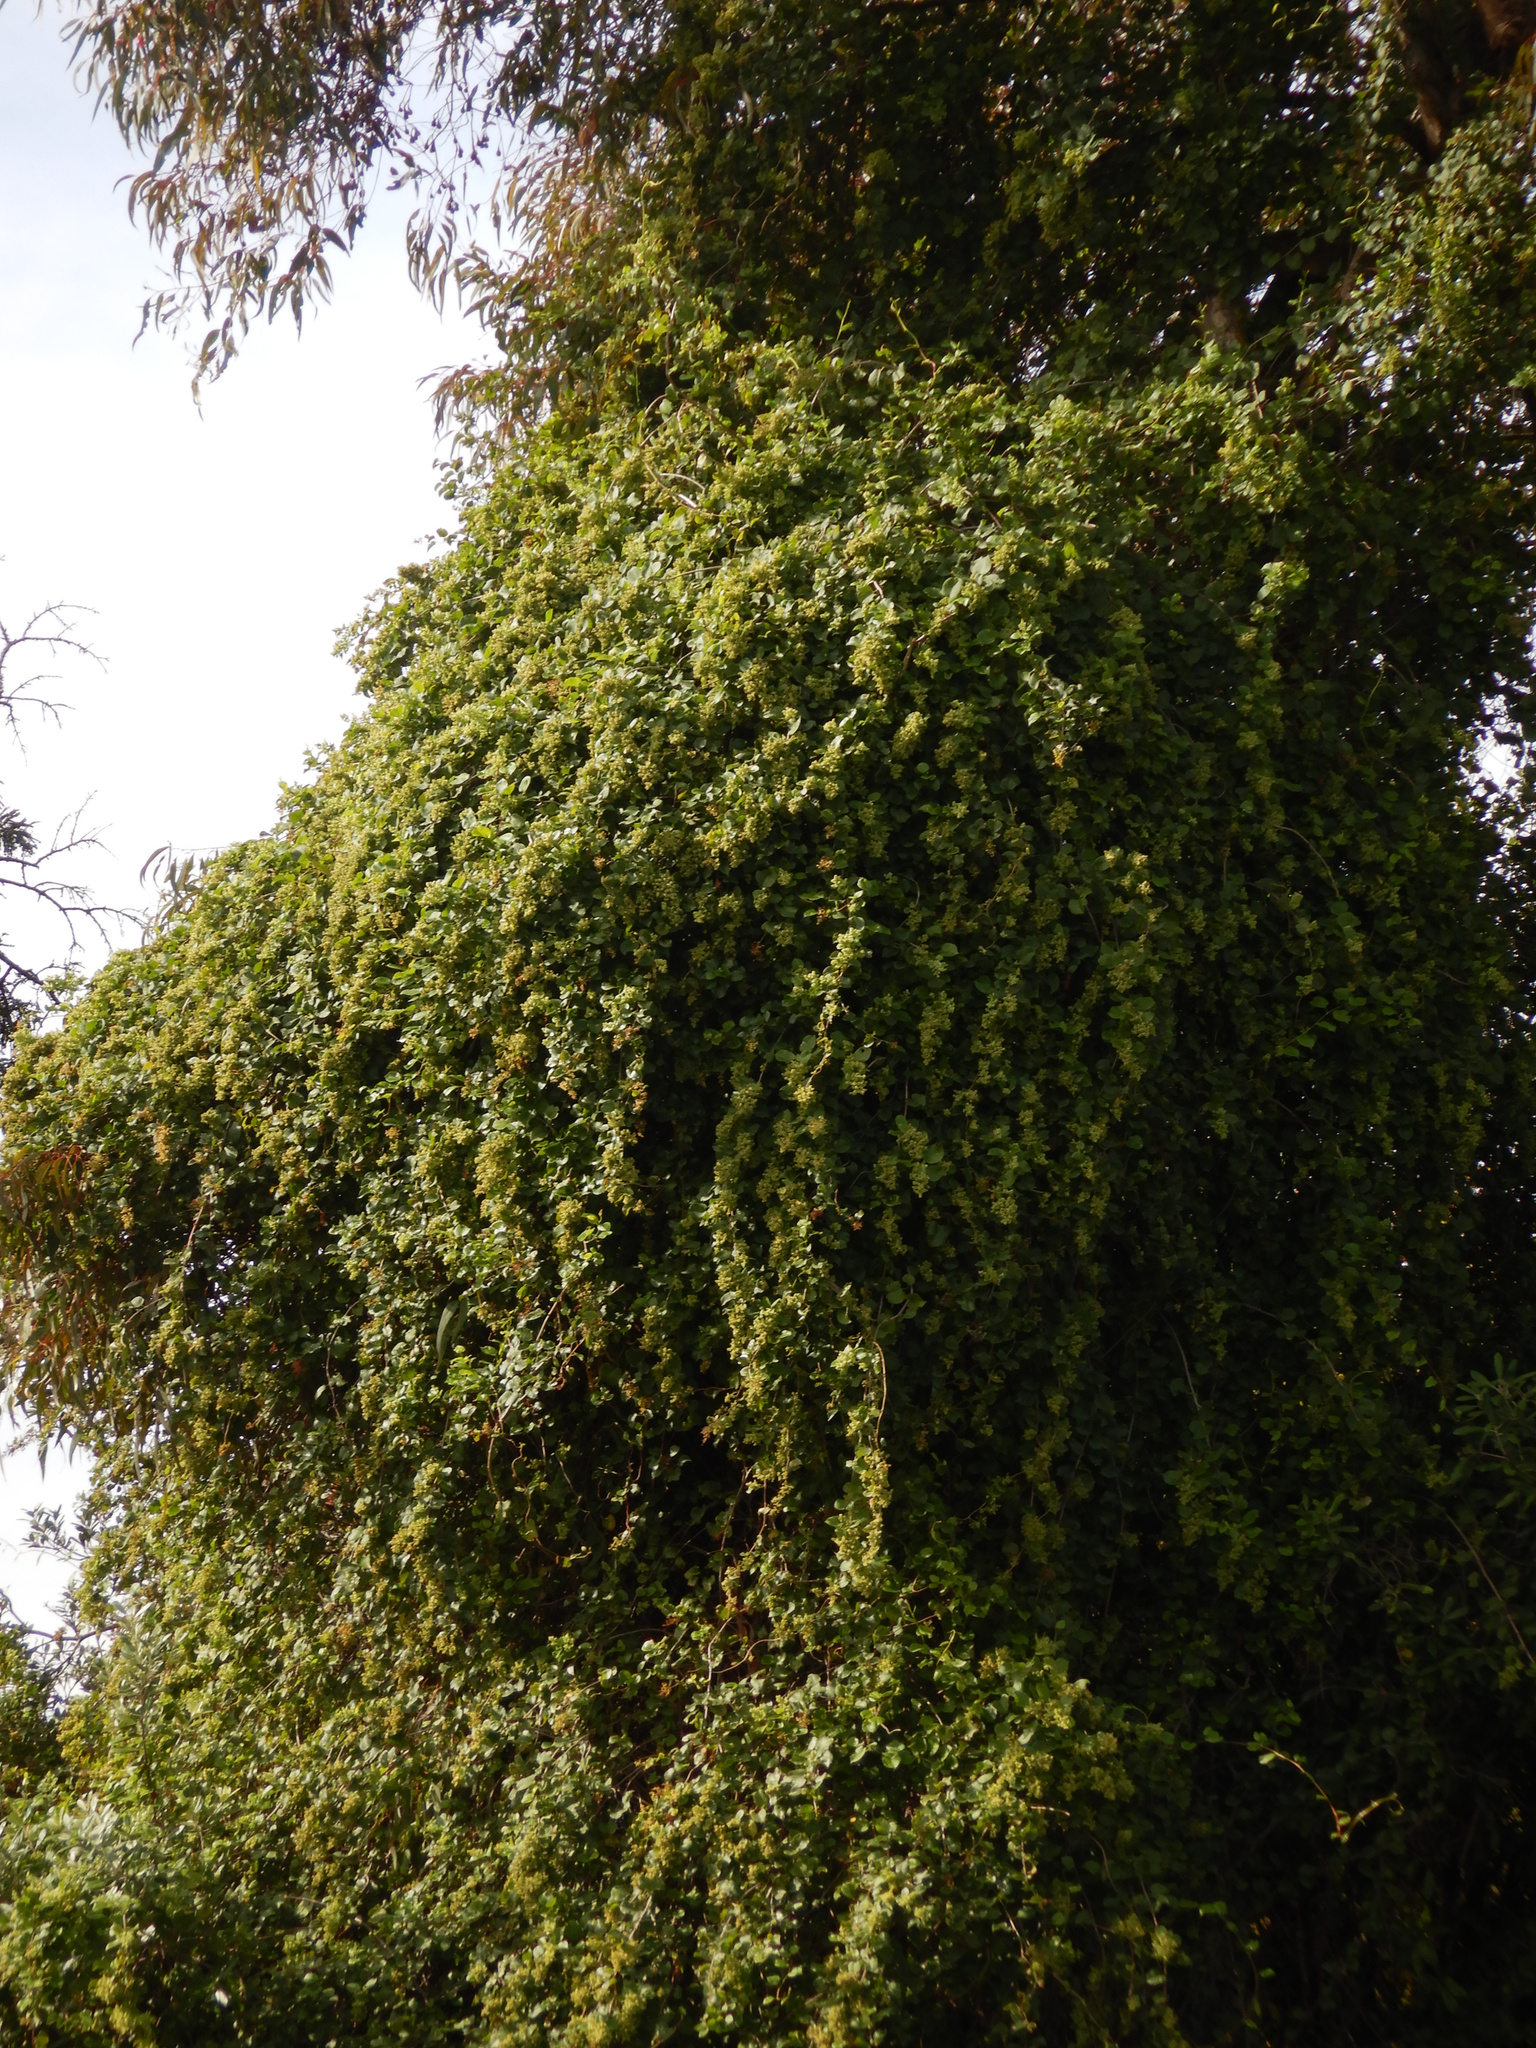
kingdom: Plantae
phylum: Tracheophyta
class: Magnoliopsida
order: Caryophyllales
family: Polygonaceae
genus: Muehlenbeckia
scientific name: Muehlenbeckia australis
